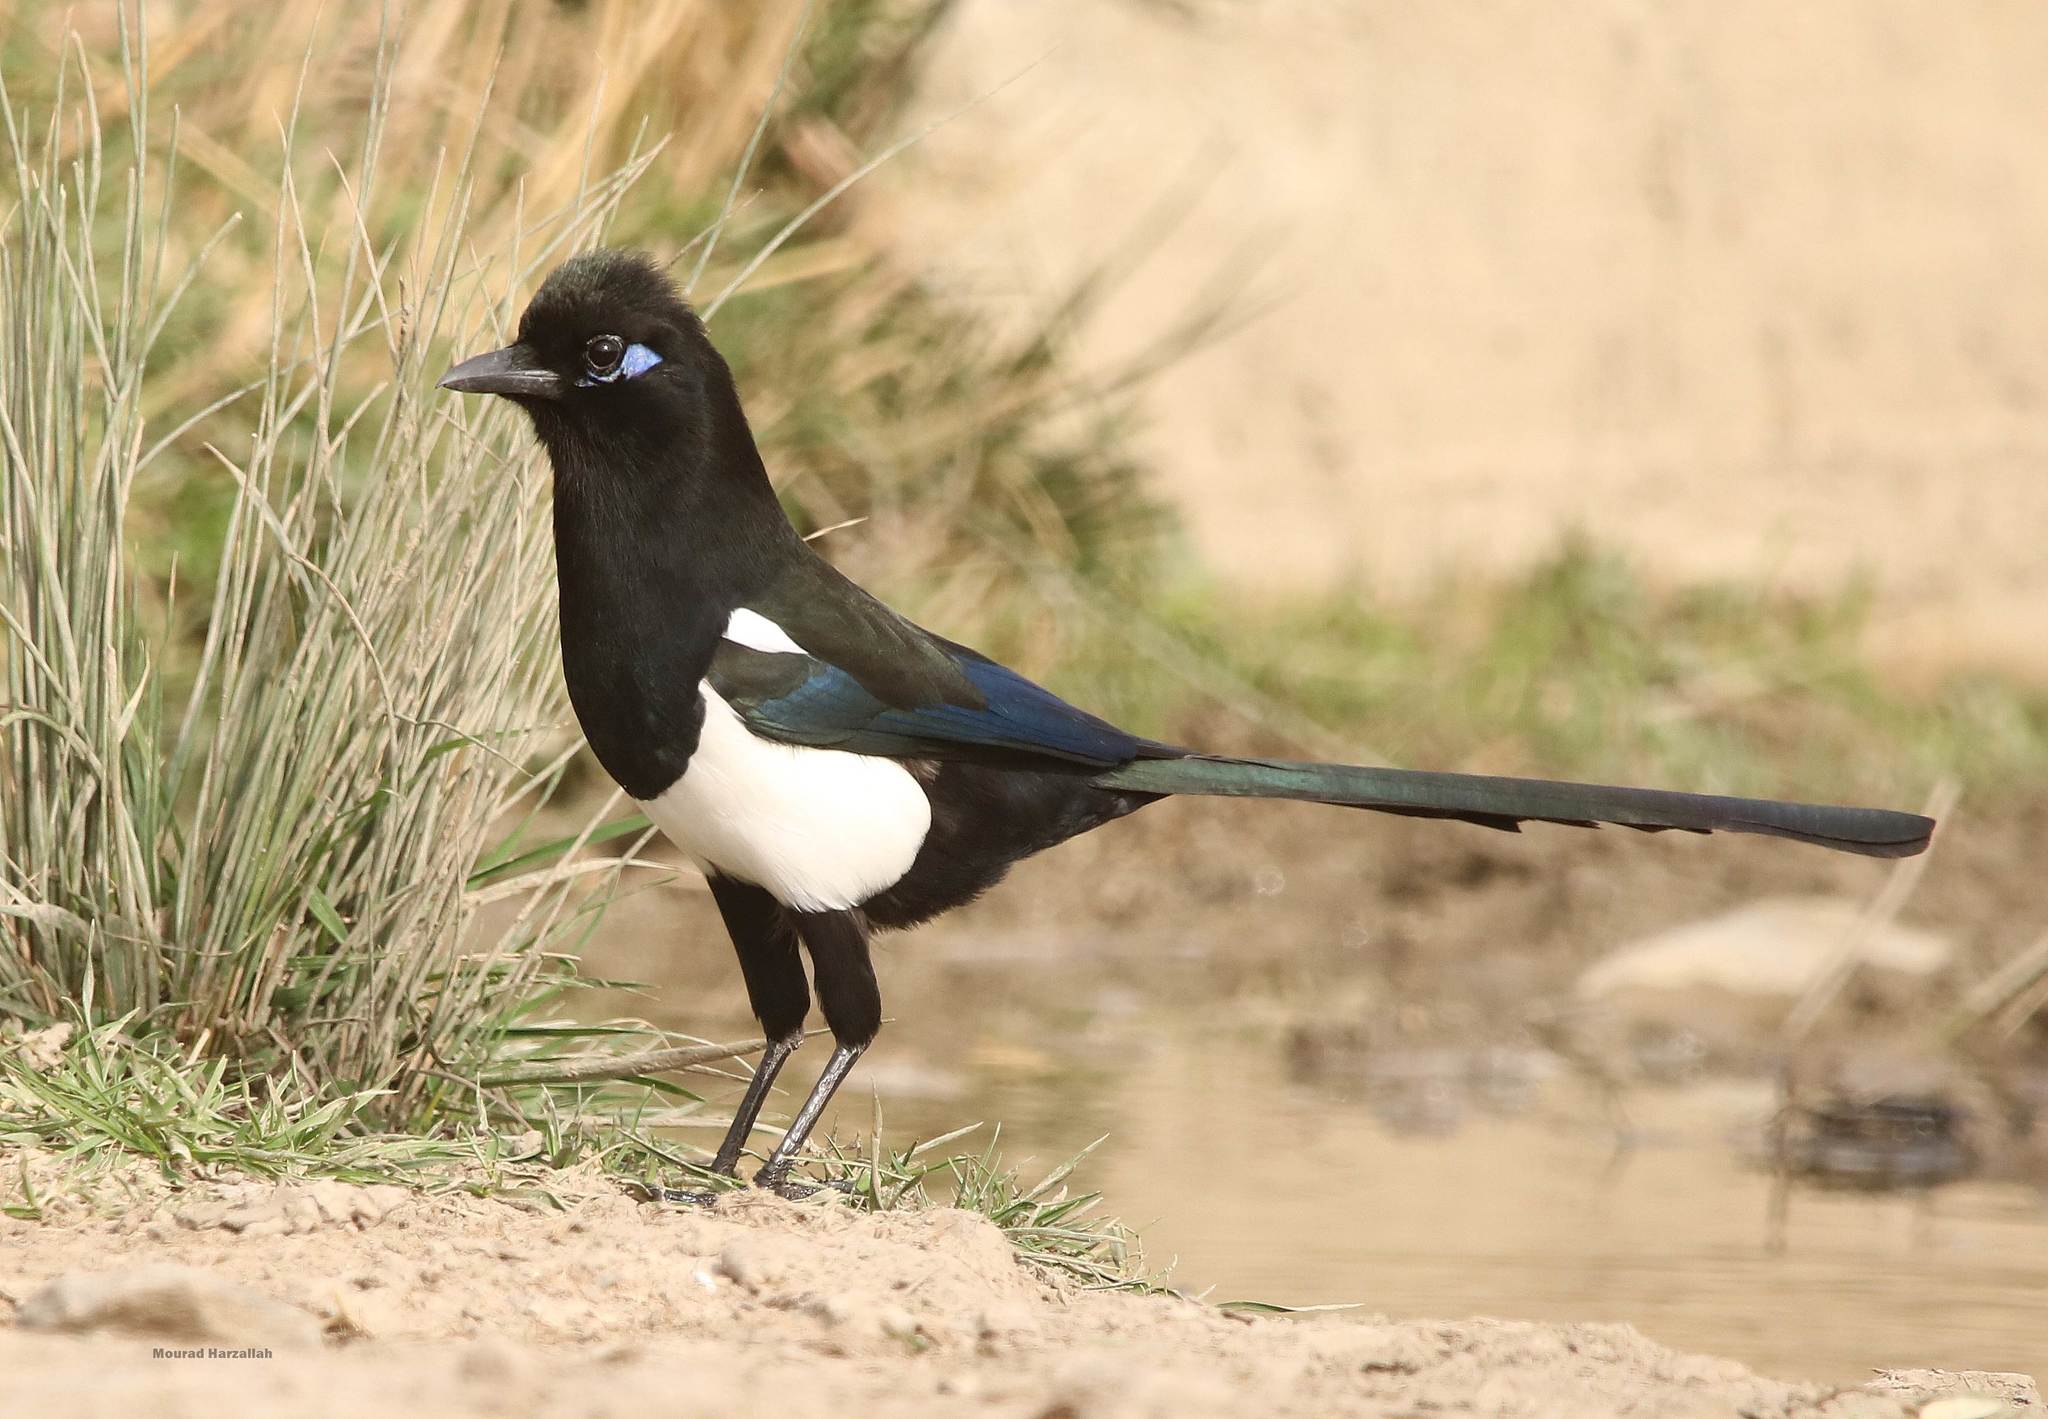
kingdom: Animalia
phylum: Chordata
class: Aves
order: Passeriformes
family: Corvidae
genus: Pica
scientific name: Pica mauritanica
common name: Maghreb magpie
